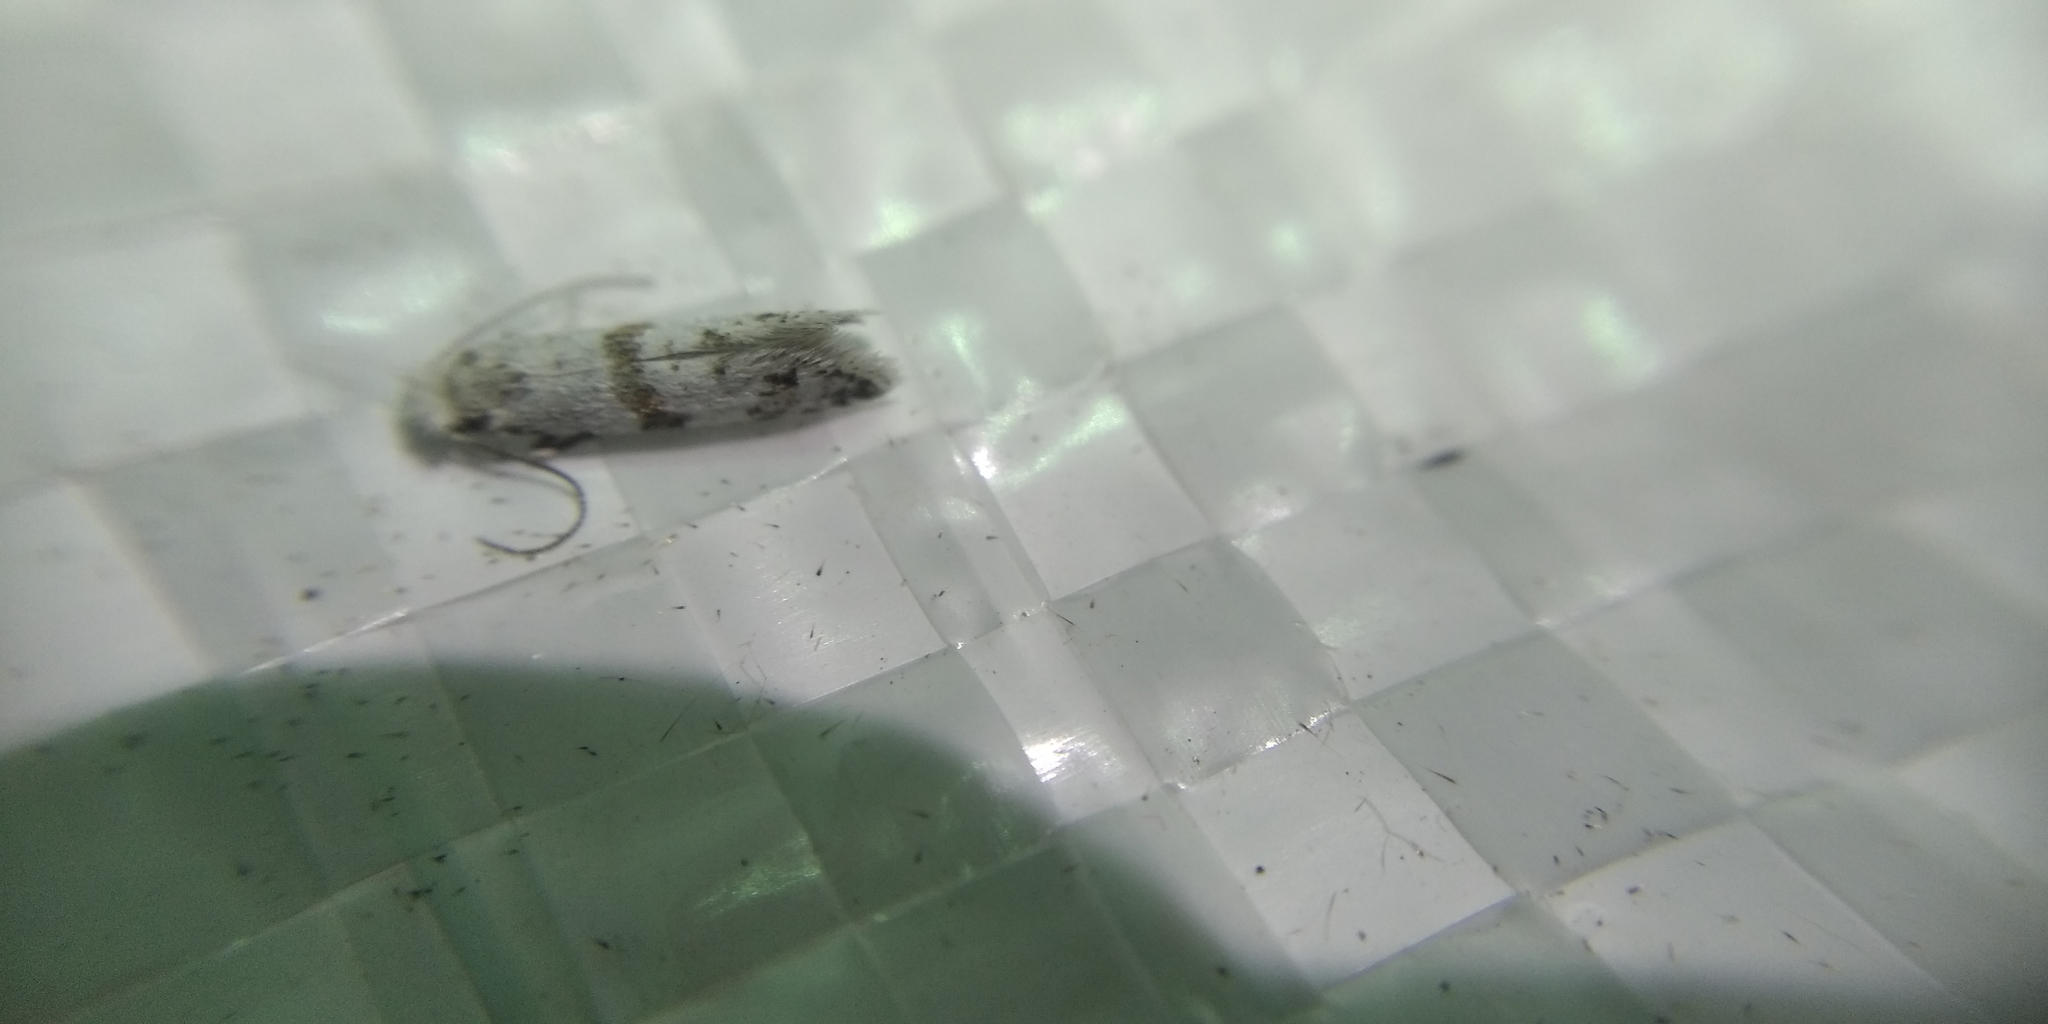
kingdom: Animalia
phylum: Arthropoda
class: Insecta
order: Lepidoptera
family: Yponomeutidae
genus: Scythropia
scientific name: Scythropia crataegella
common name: Hawthorn moth
